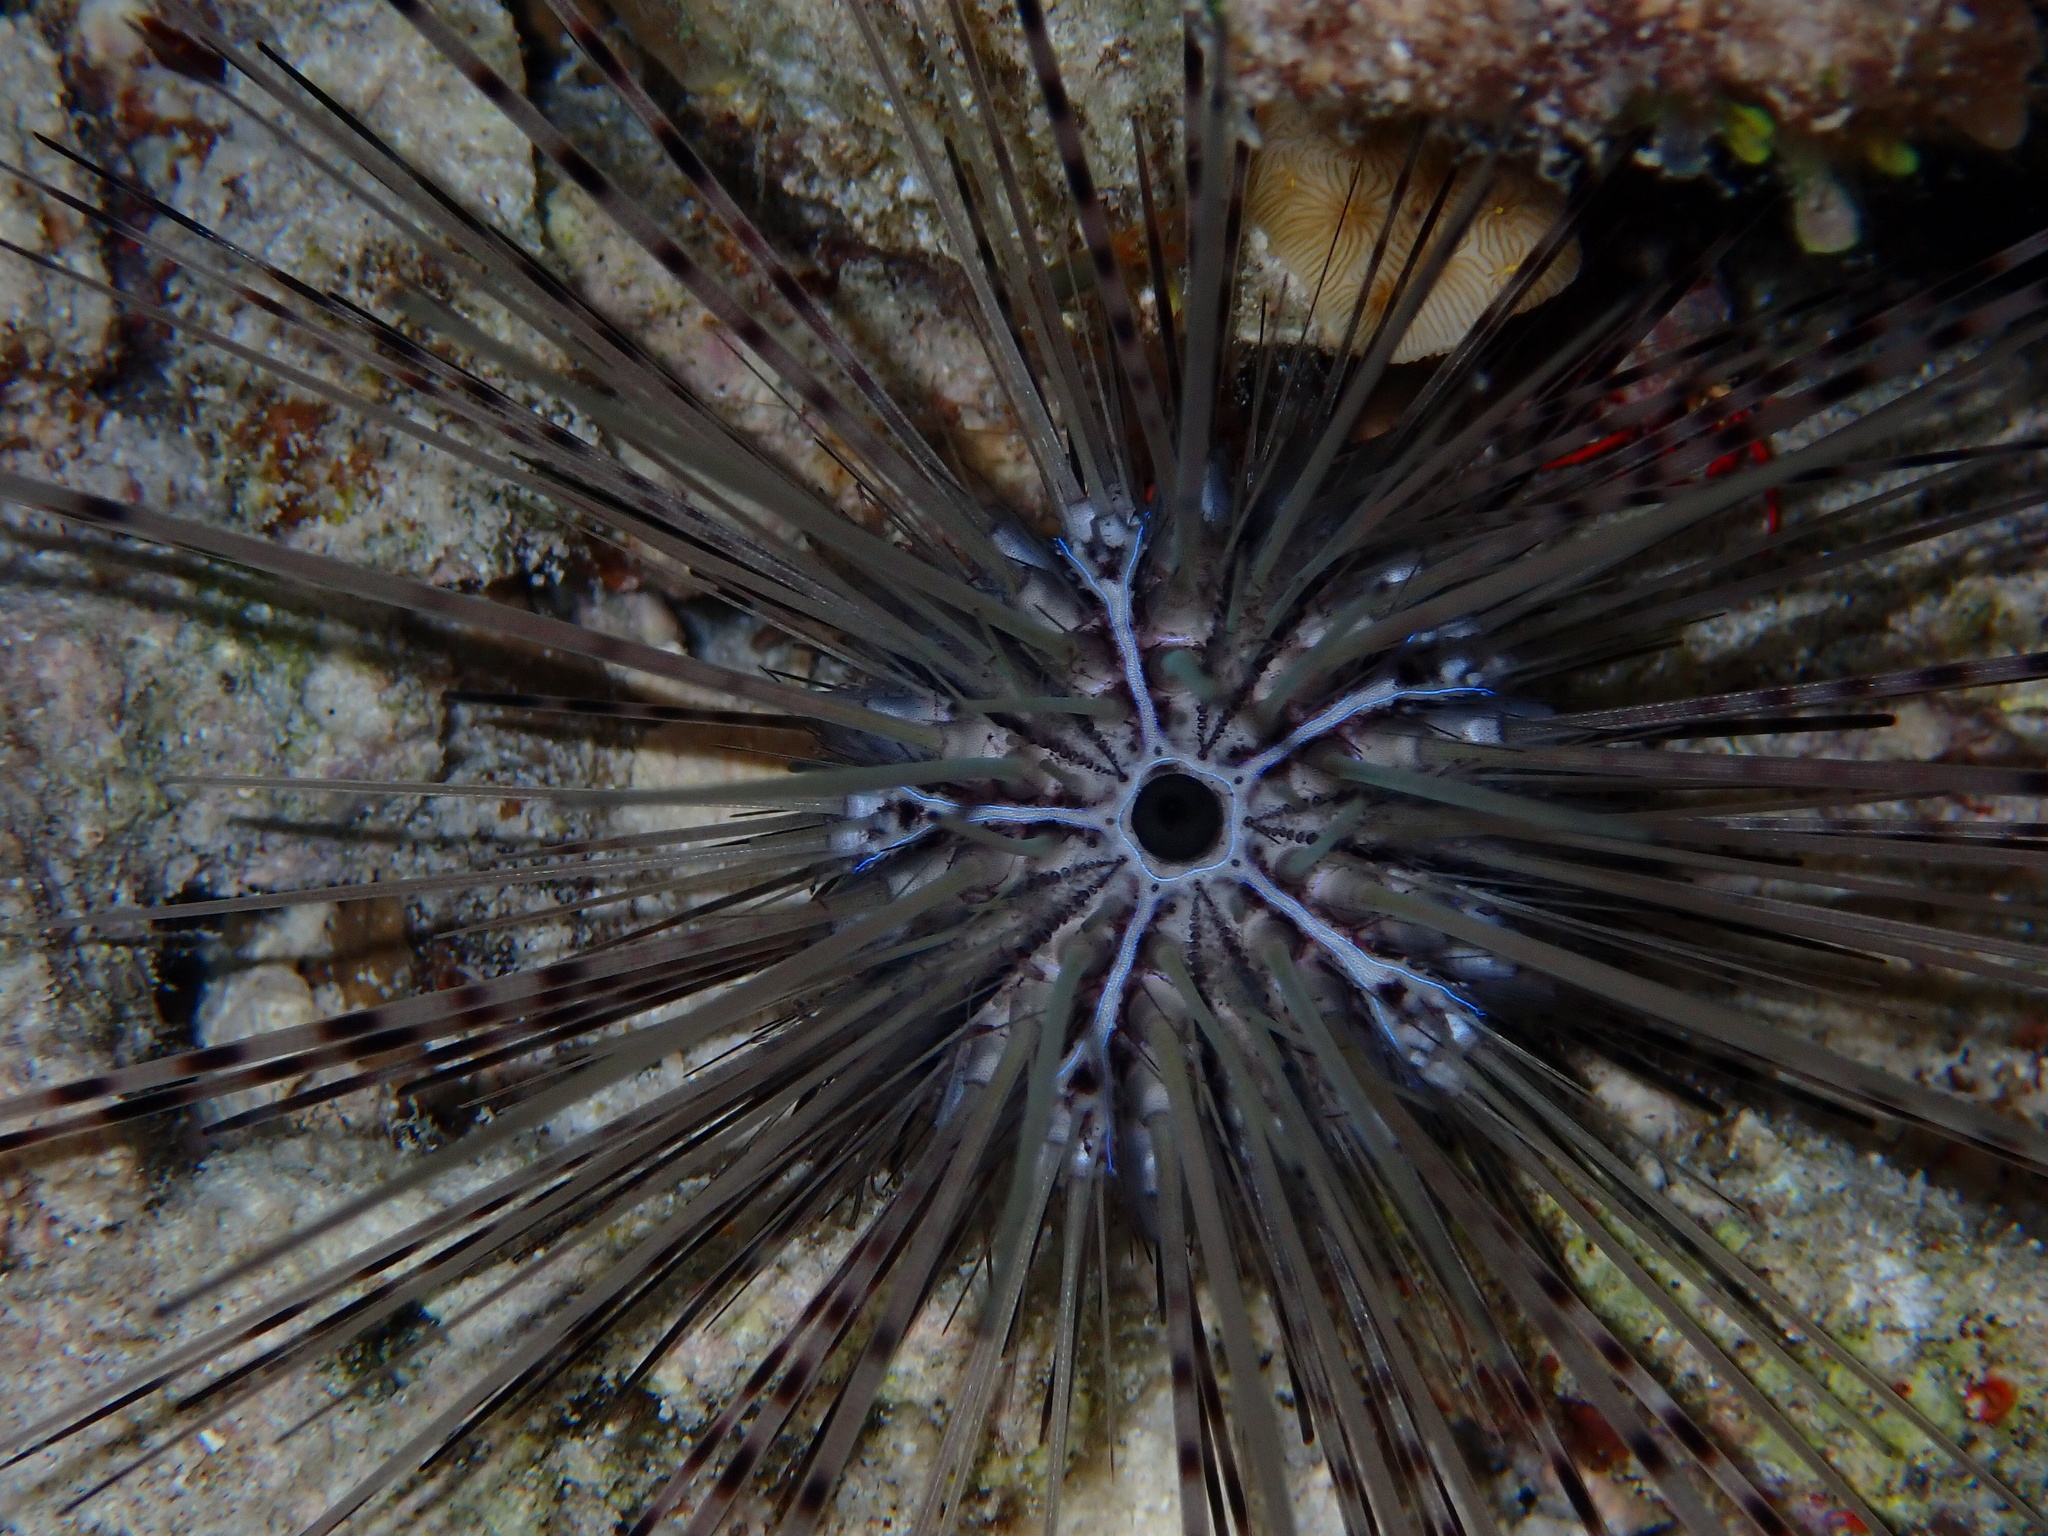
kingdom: Animalia
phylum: Echinodermata
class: Echinoidea
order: Diadematoida
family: Diadematidae
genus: Diadema
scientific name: Diadema antillarum
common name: Spiny urchin
